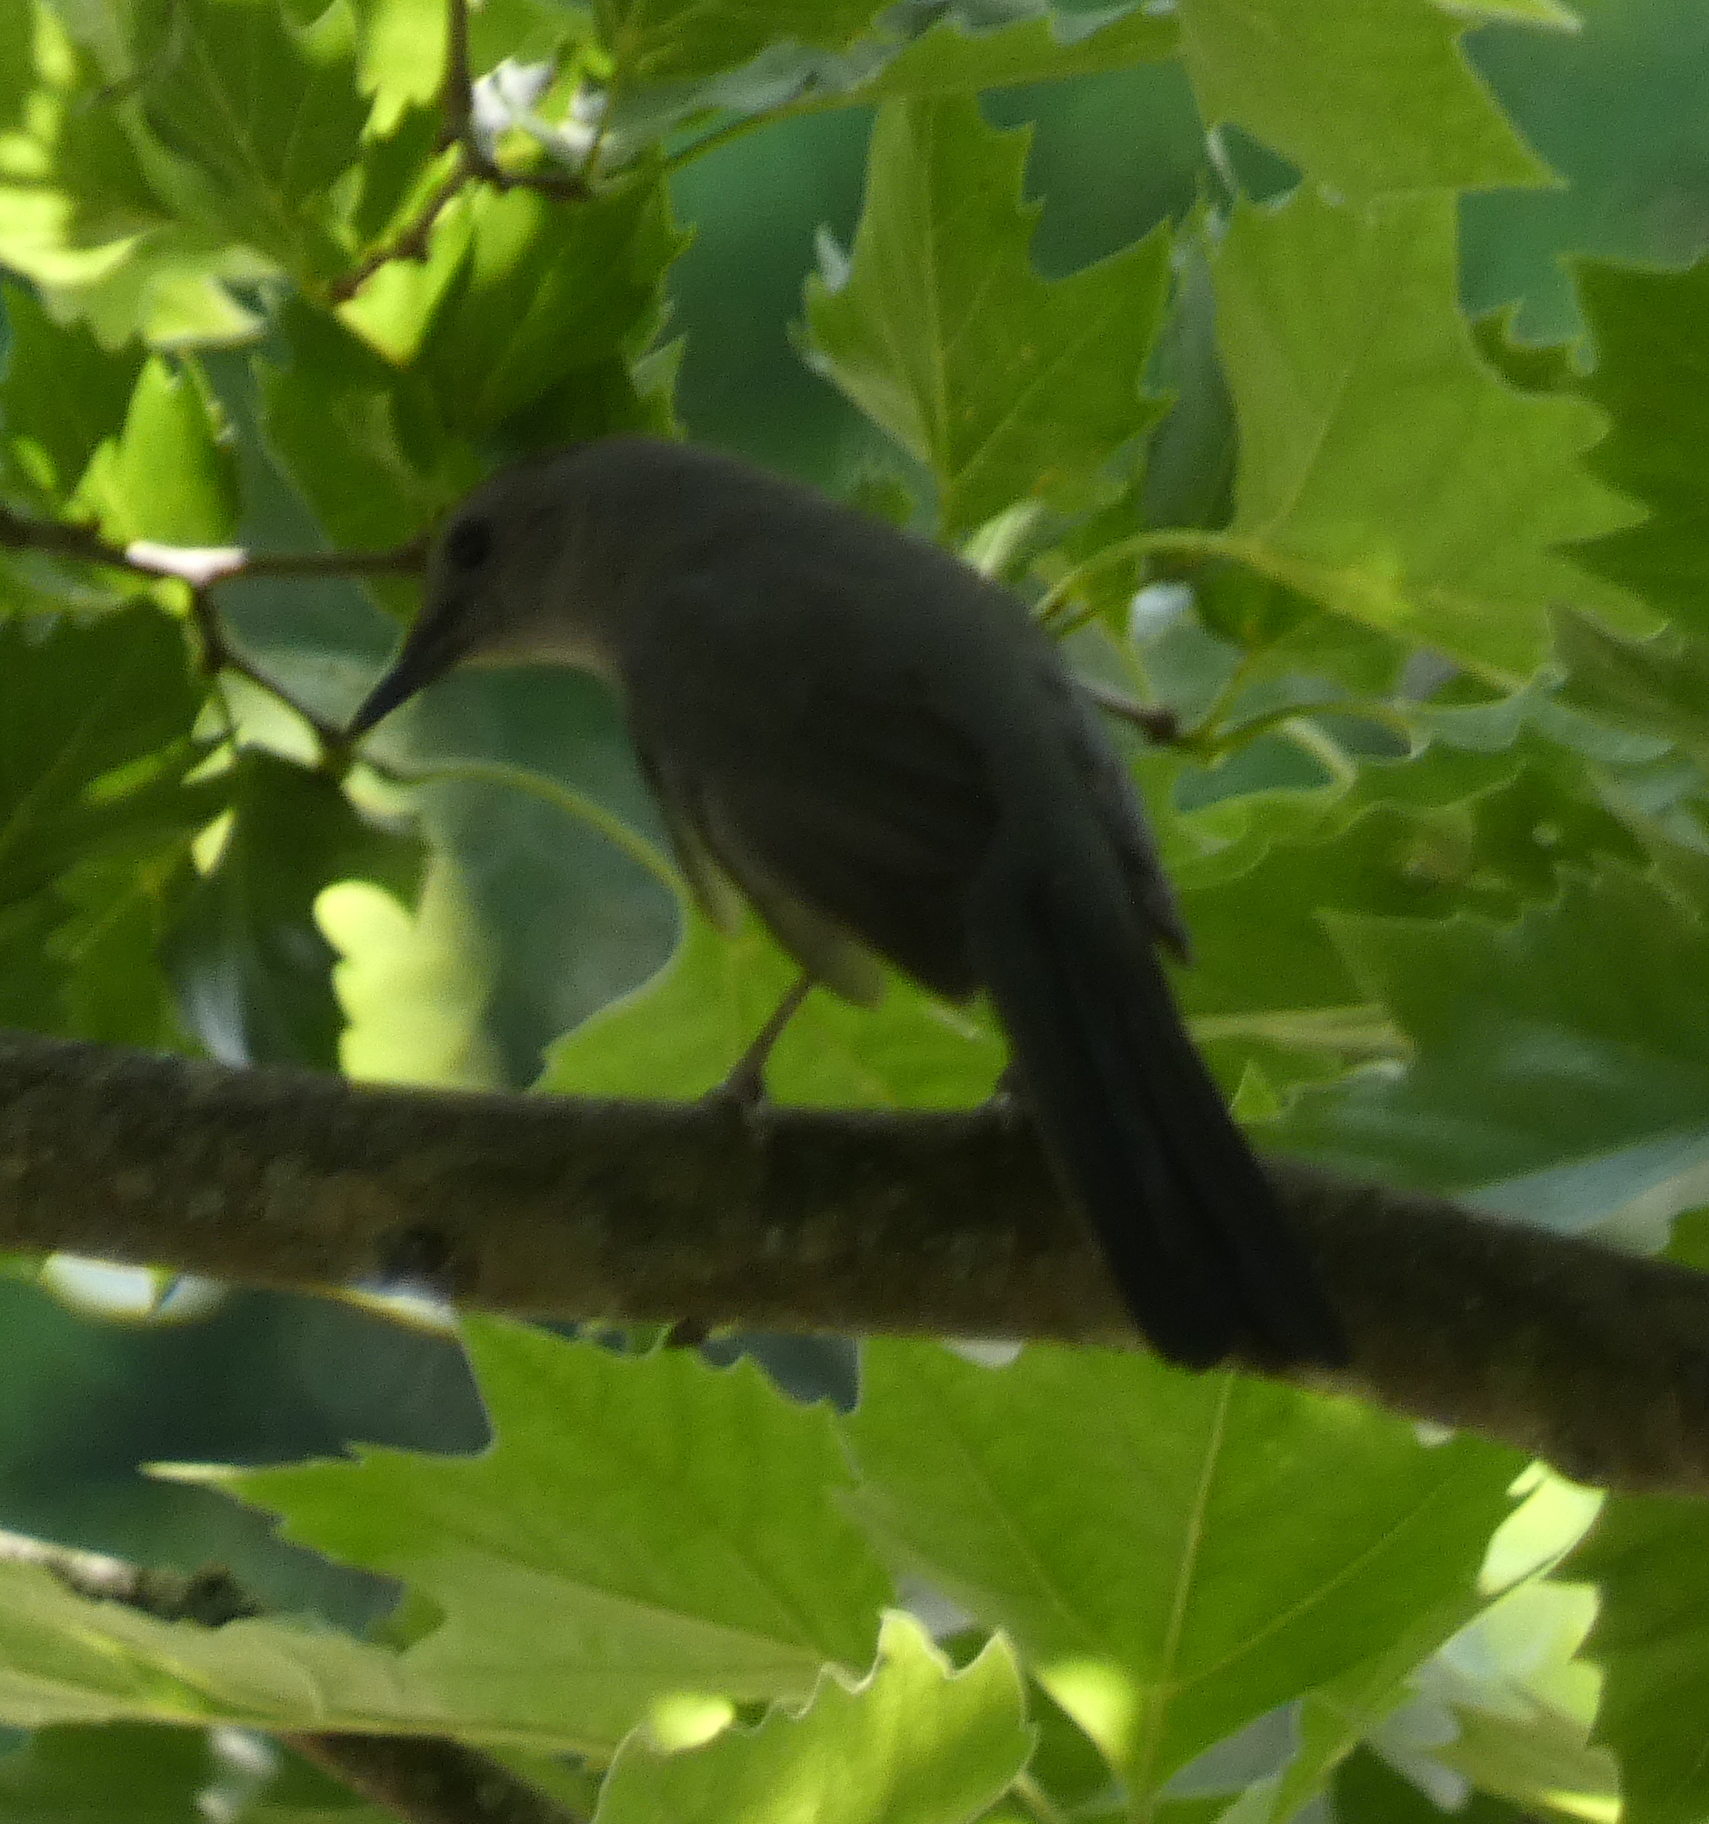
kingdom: Animalia
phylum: Chordata
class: Aves
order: Passeriformes
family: Mimidae
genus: Dumetella
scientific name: Dumetella carolinensis
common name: Gray catbird
